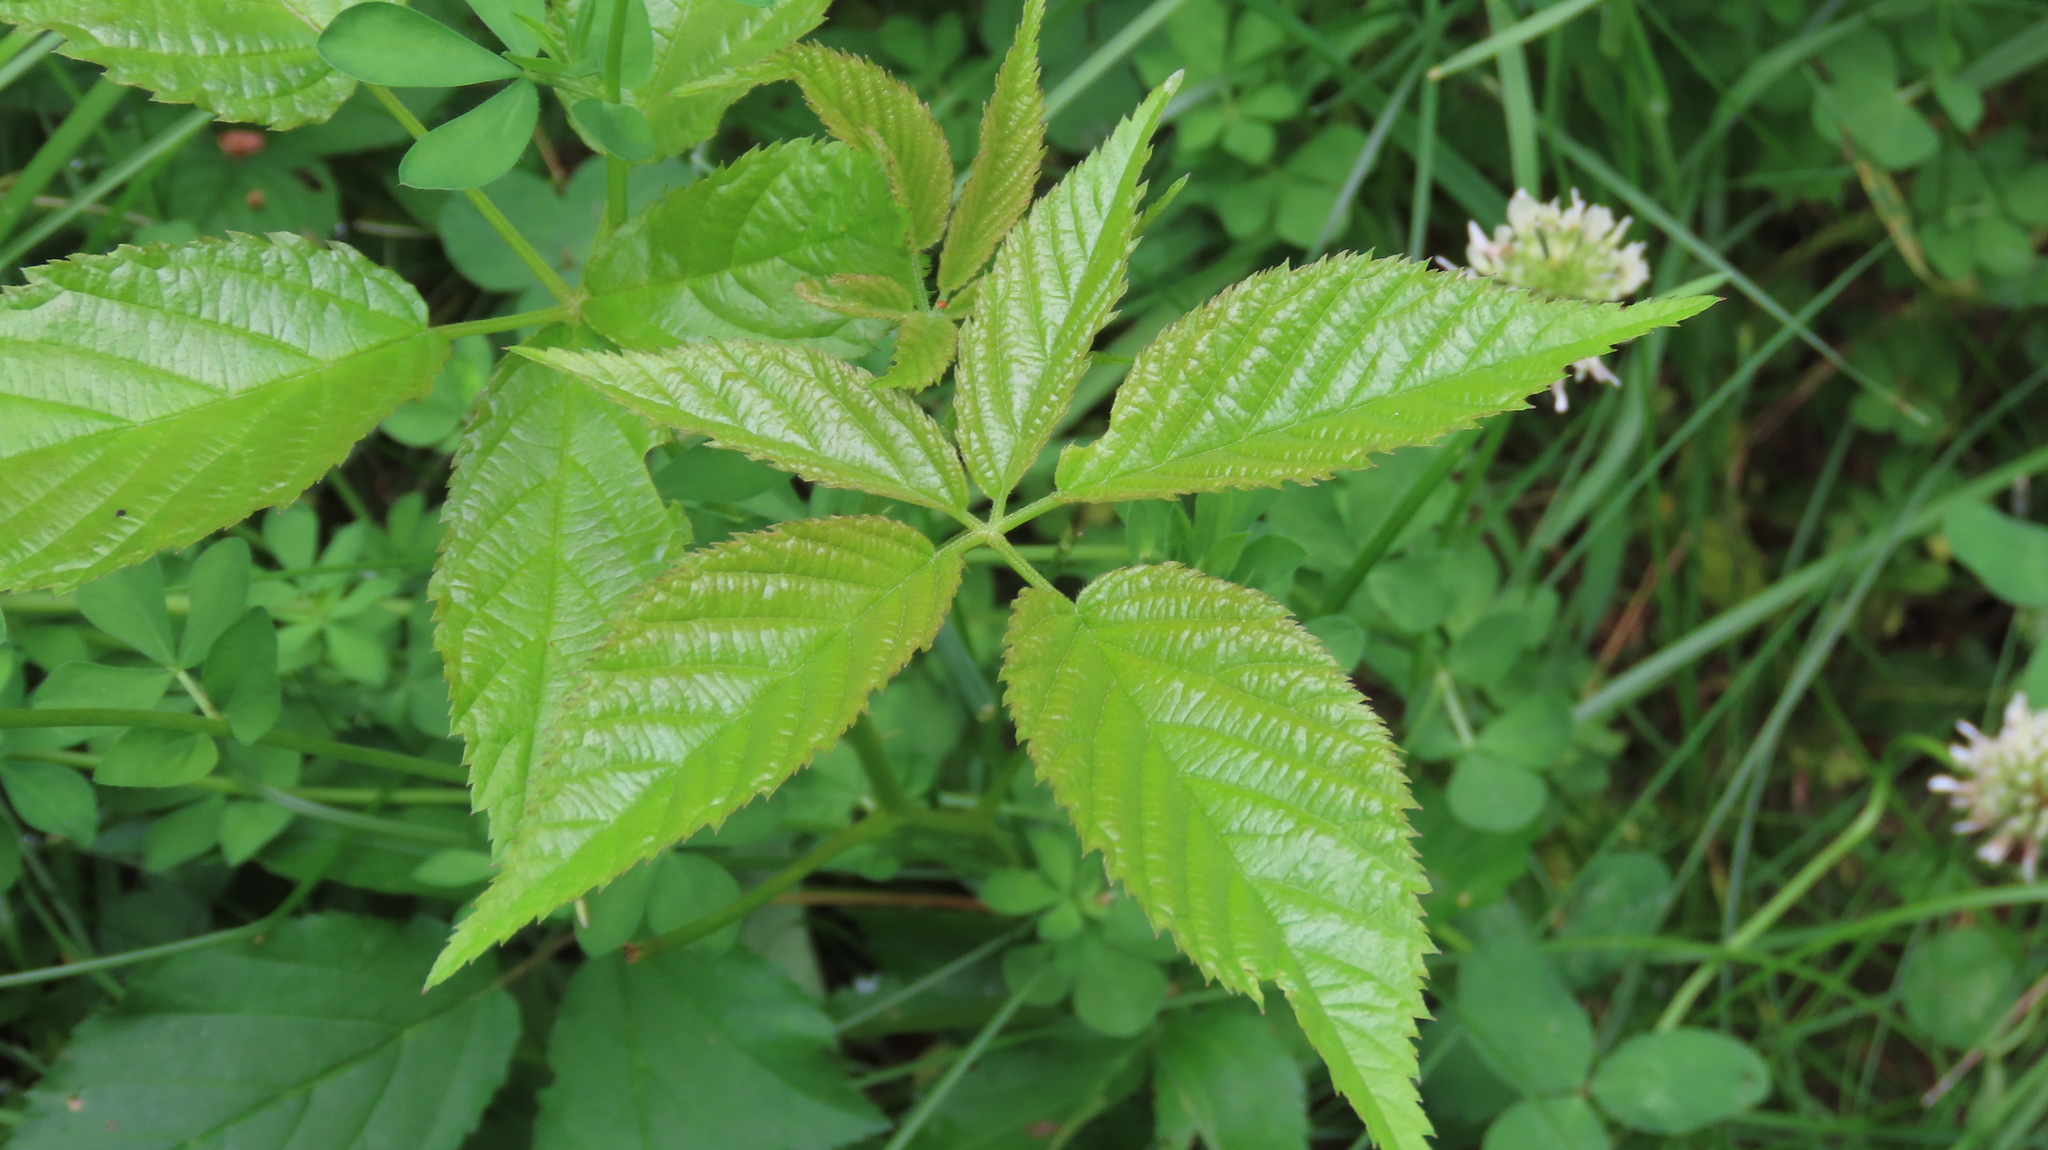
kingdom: Plantae
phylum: Tracheophyta
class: Magnoliopsida
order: Rosales
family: Rosaceae
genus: Rubus
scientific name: Rubus allegheniensis
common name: Allegheny blackberry
